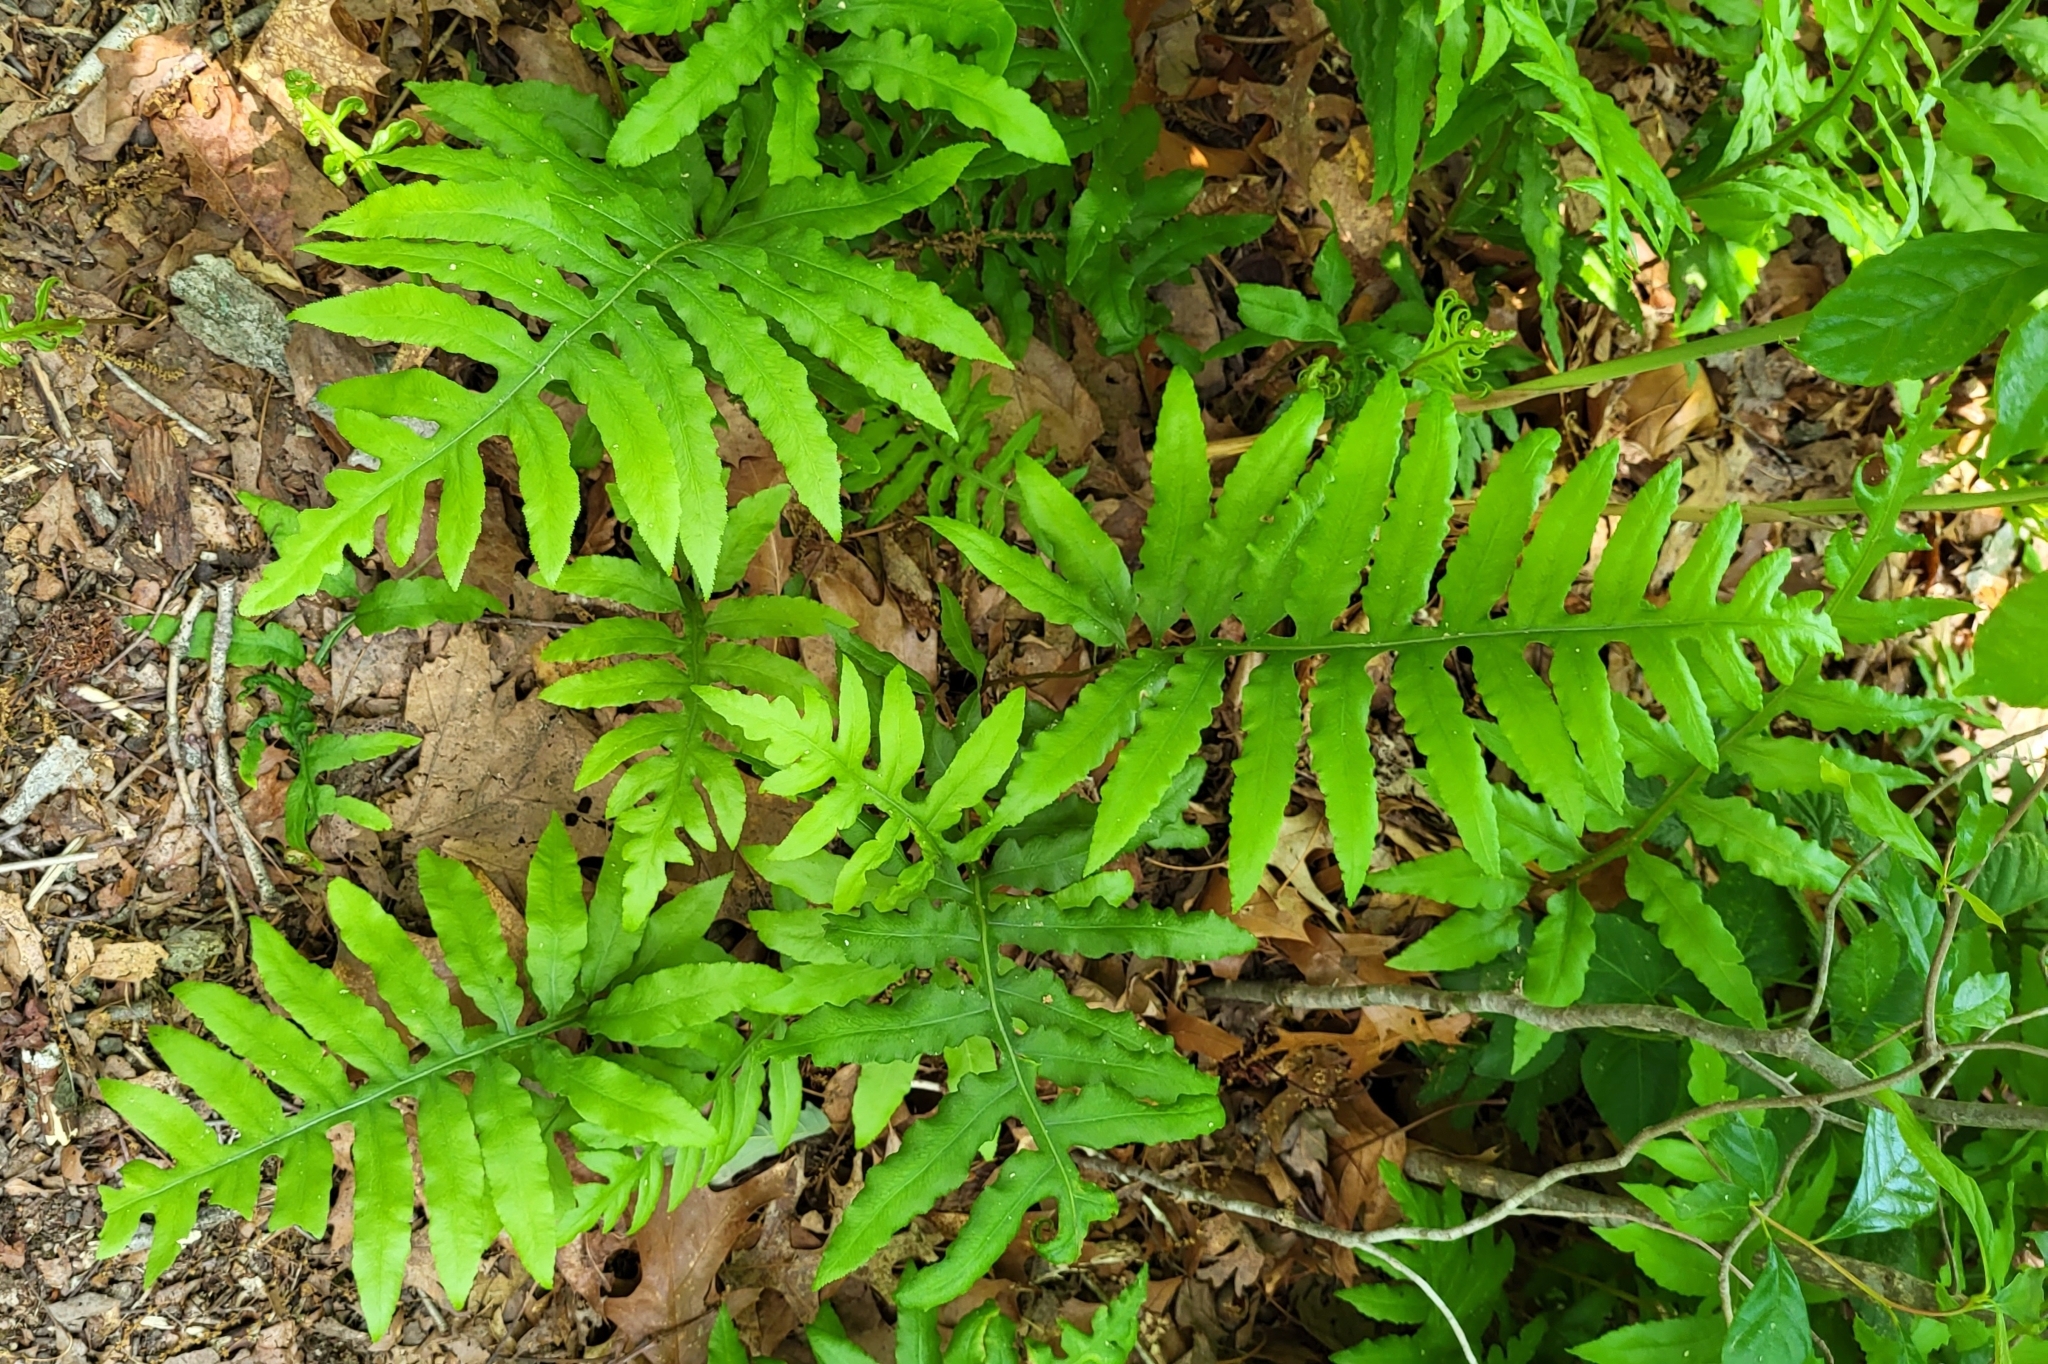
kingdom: Plantae
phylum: Tracheophyta
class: Polypodiopsida
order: Polypodiales
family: Blechnaceae
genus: Lorinseria
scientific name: Lorinseria areolata
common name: Dwarf chain fern
